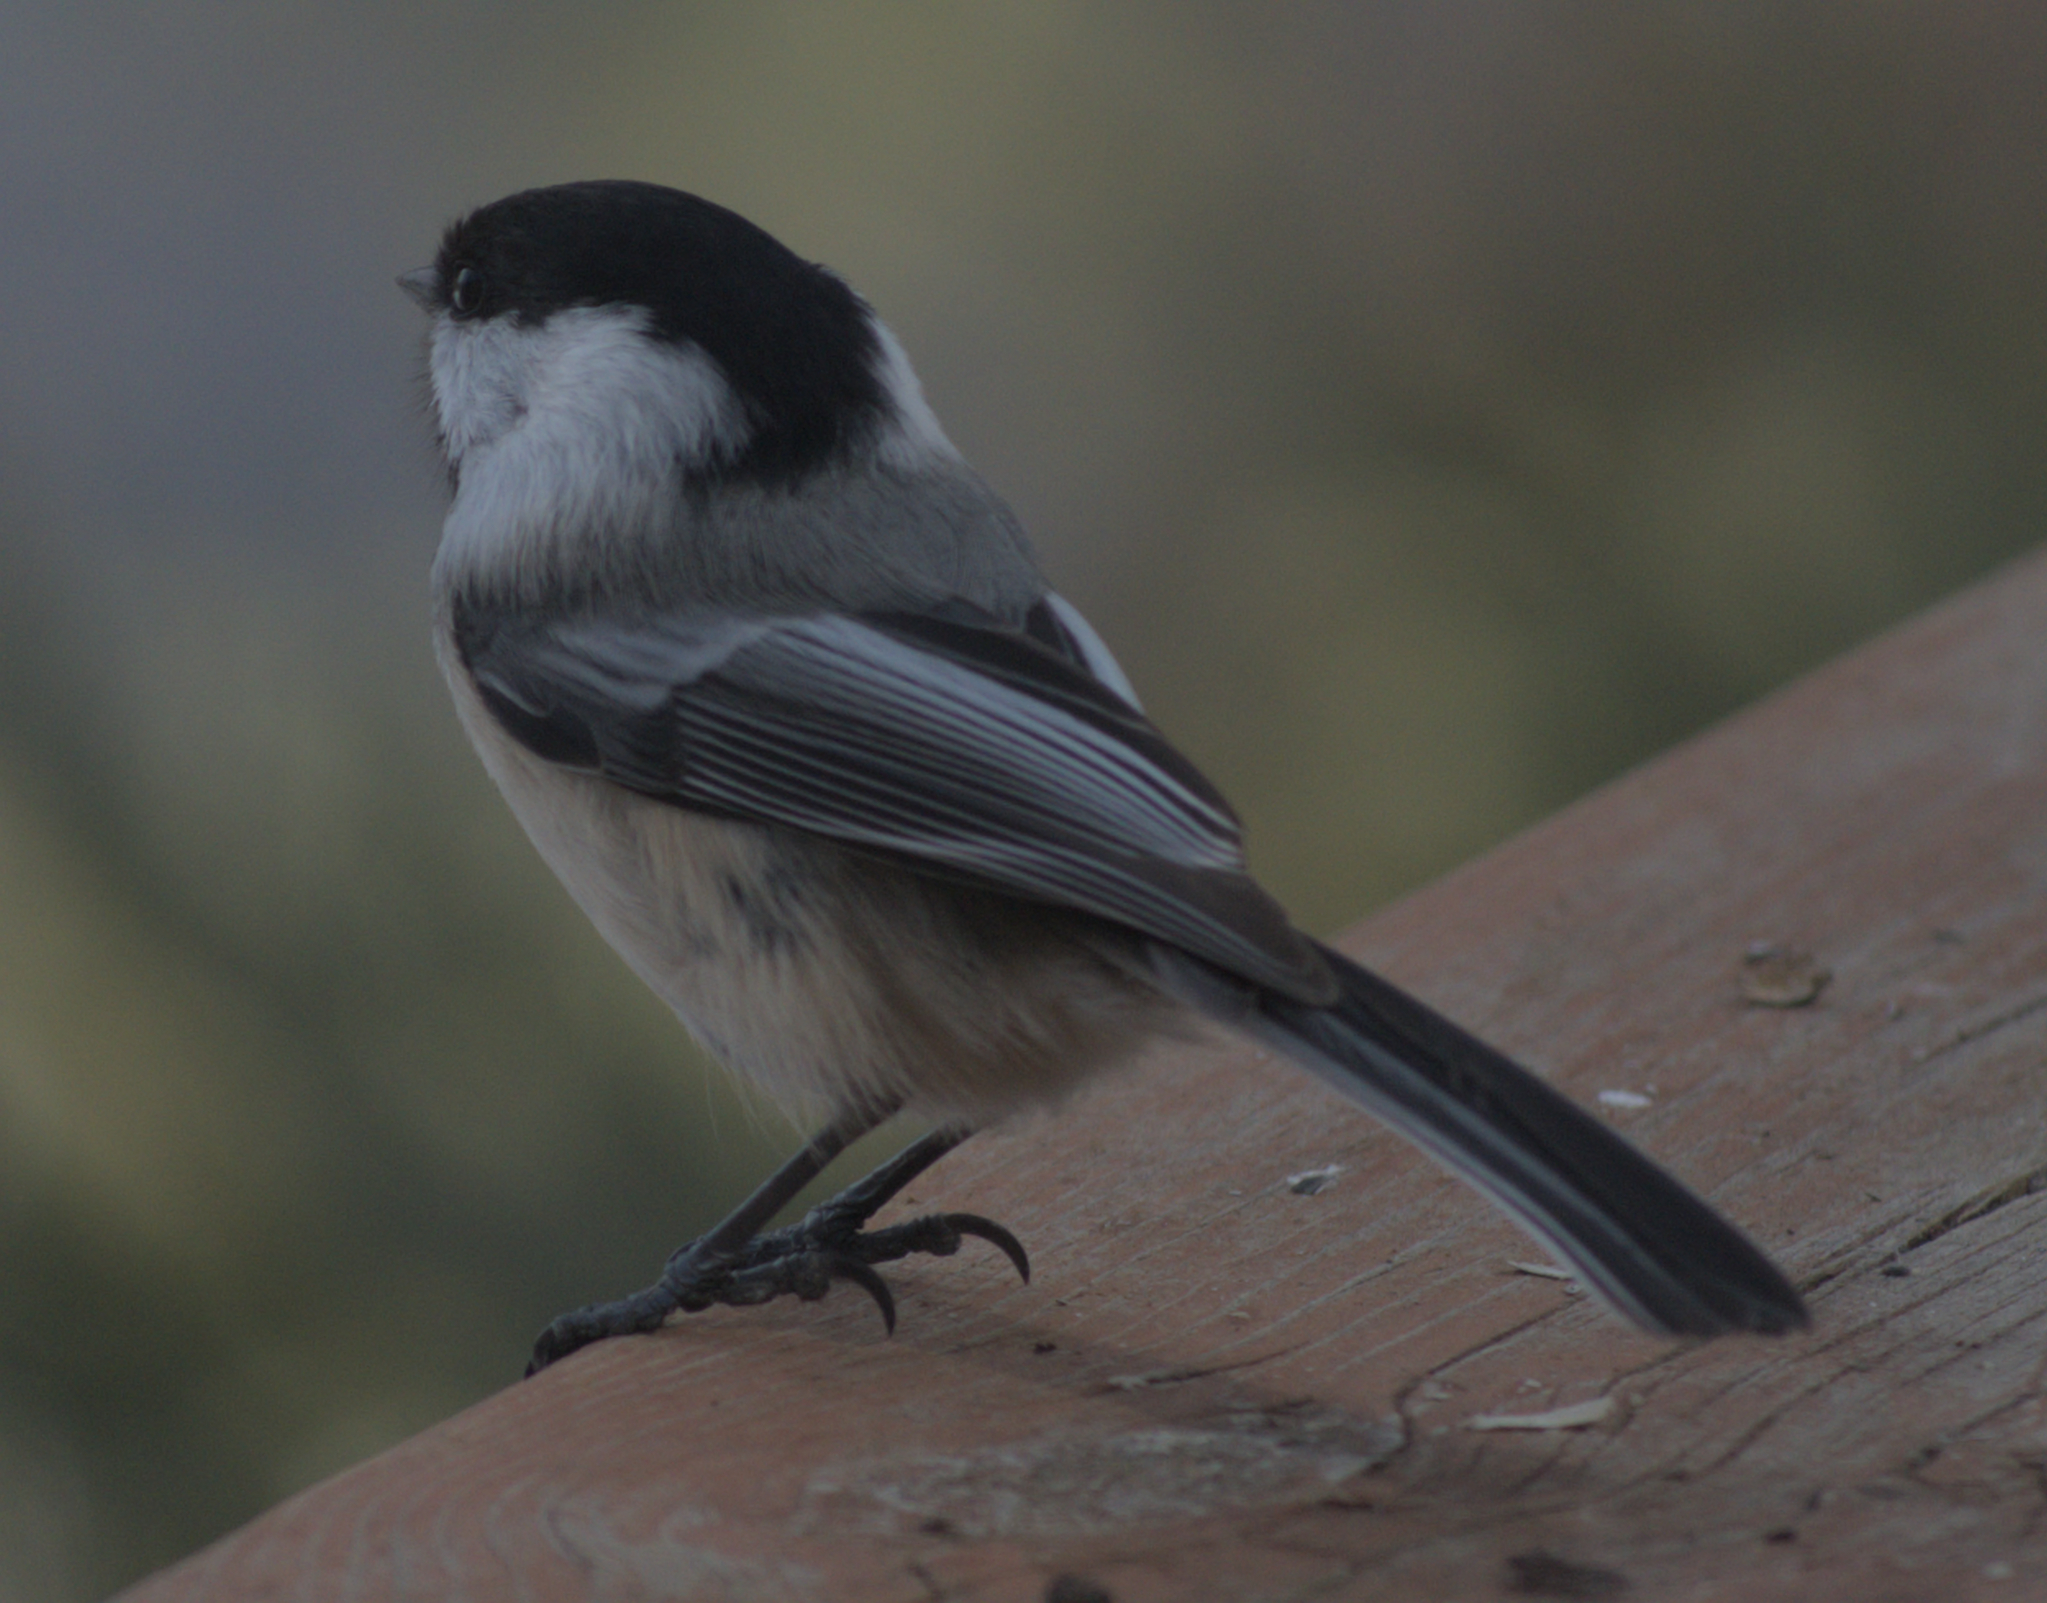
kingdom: Animalia
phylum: Chordata
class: Aves
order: Passeriformes
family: Paridae
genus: Poecile
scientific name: Poecile atricapillus
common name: Black-capped chickadee
